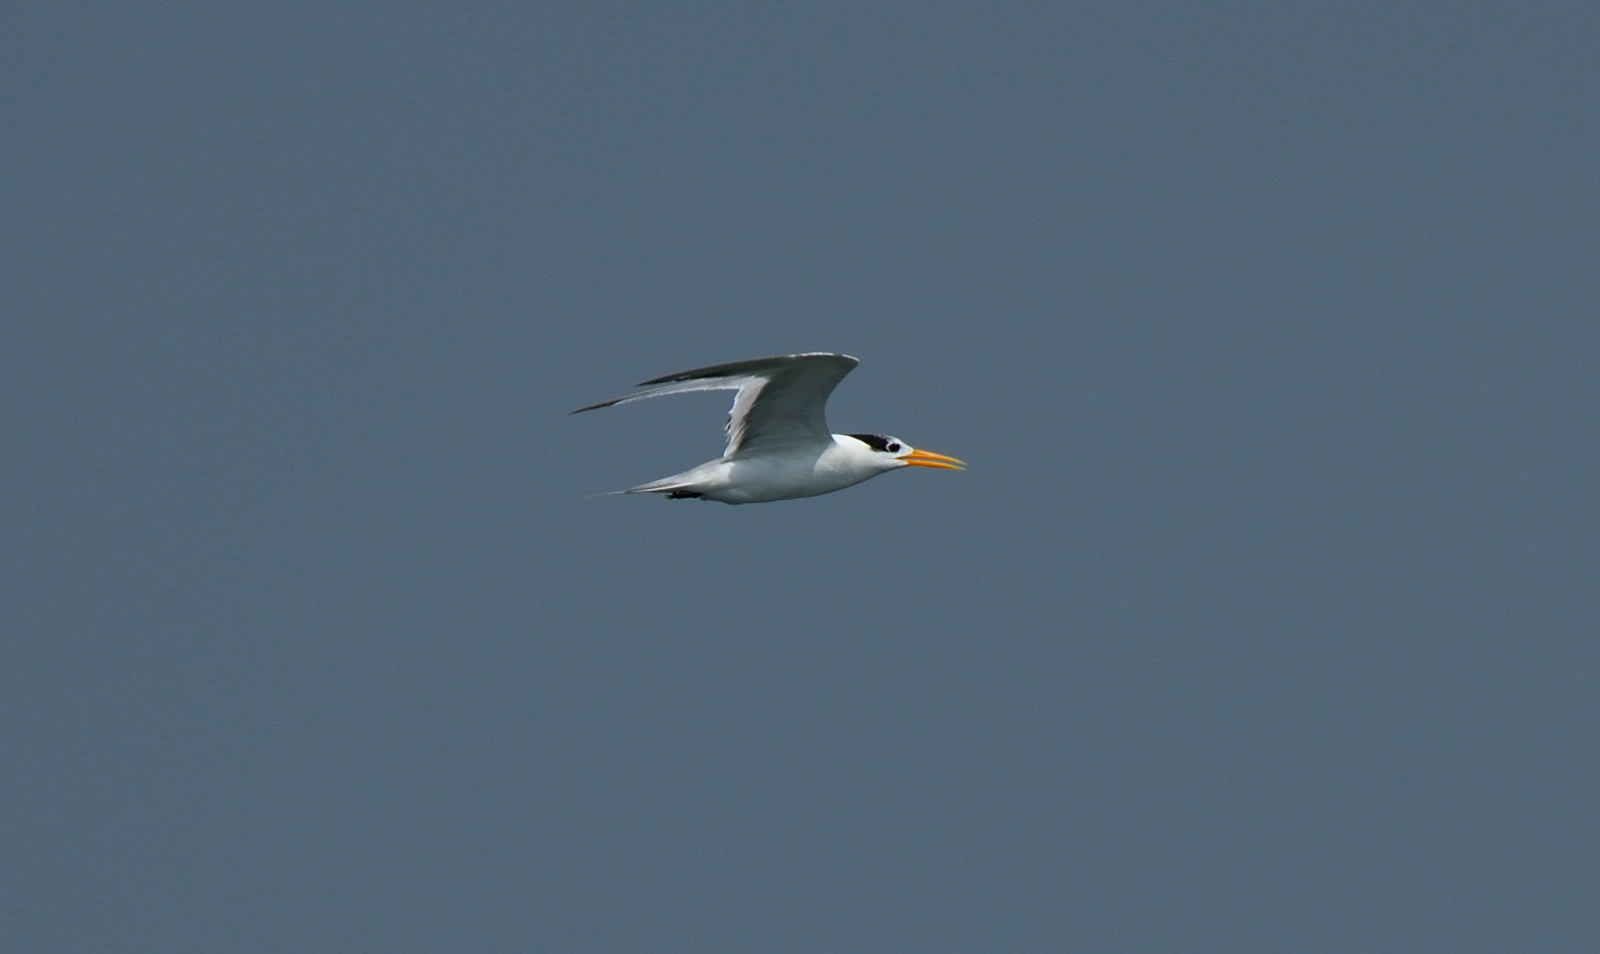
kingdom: Animalia
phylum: Chordata
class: Aves
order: Charadriiformes
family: Laridae
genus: Thalasseus
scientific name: Thalasseus bengalensis
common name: Lesser crested tern
